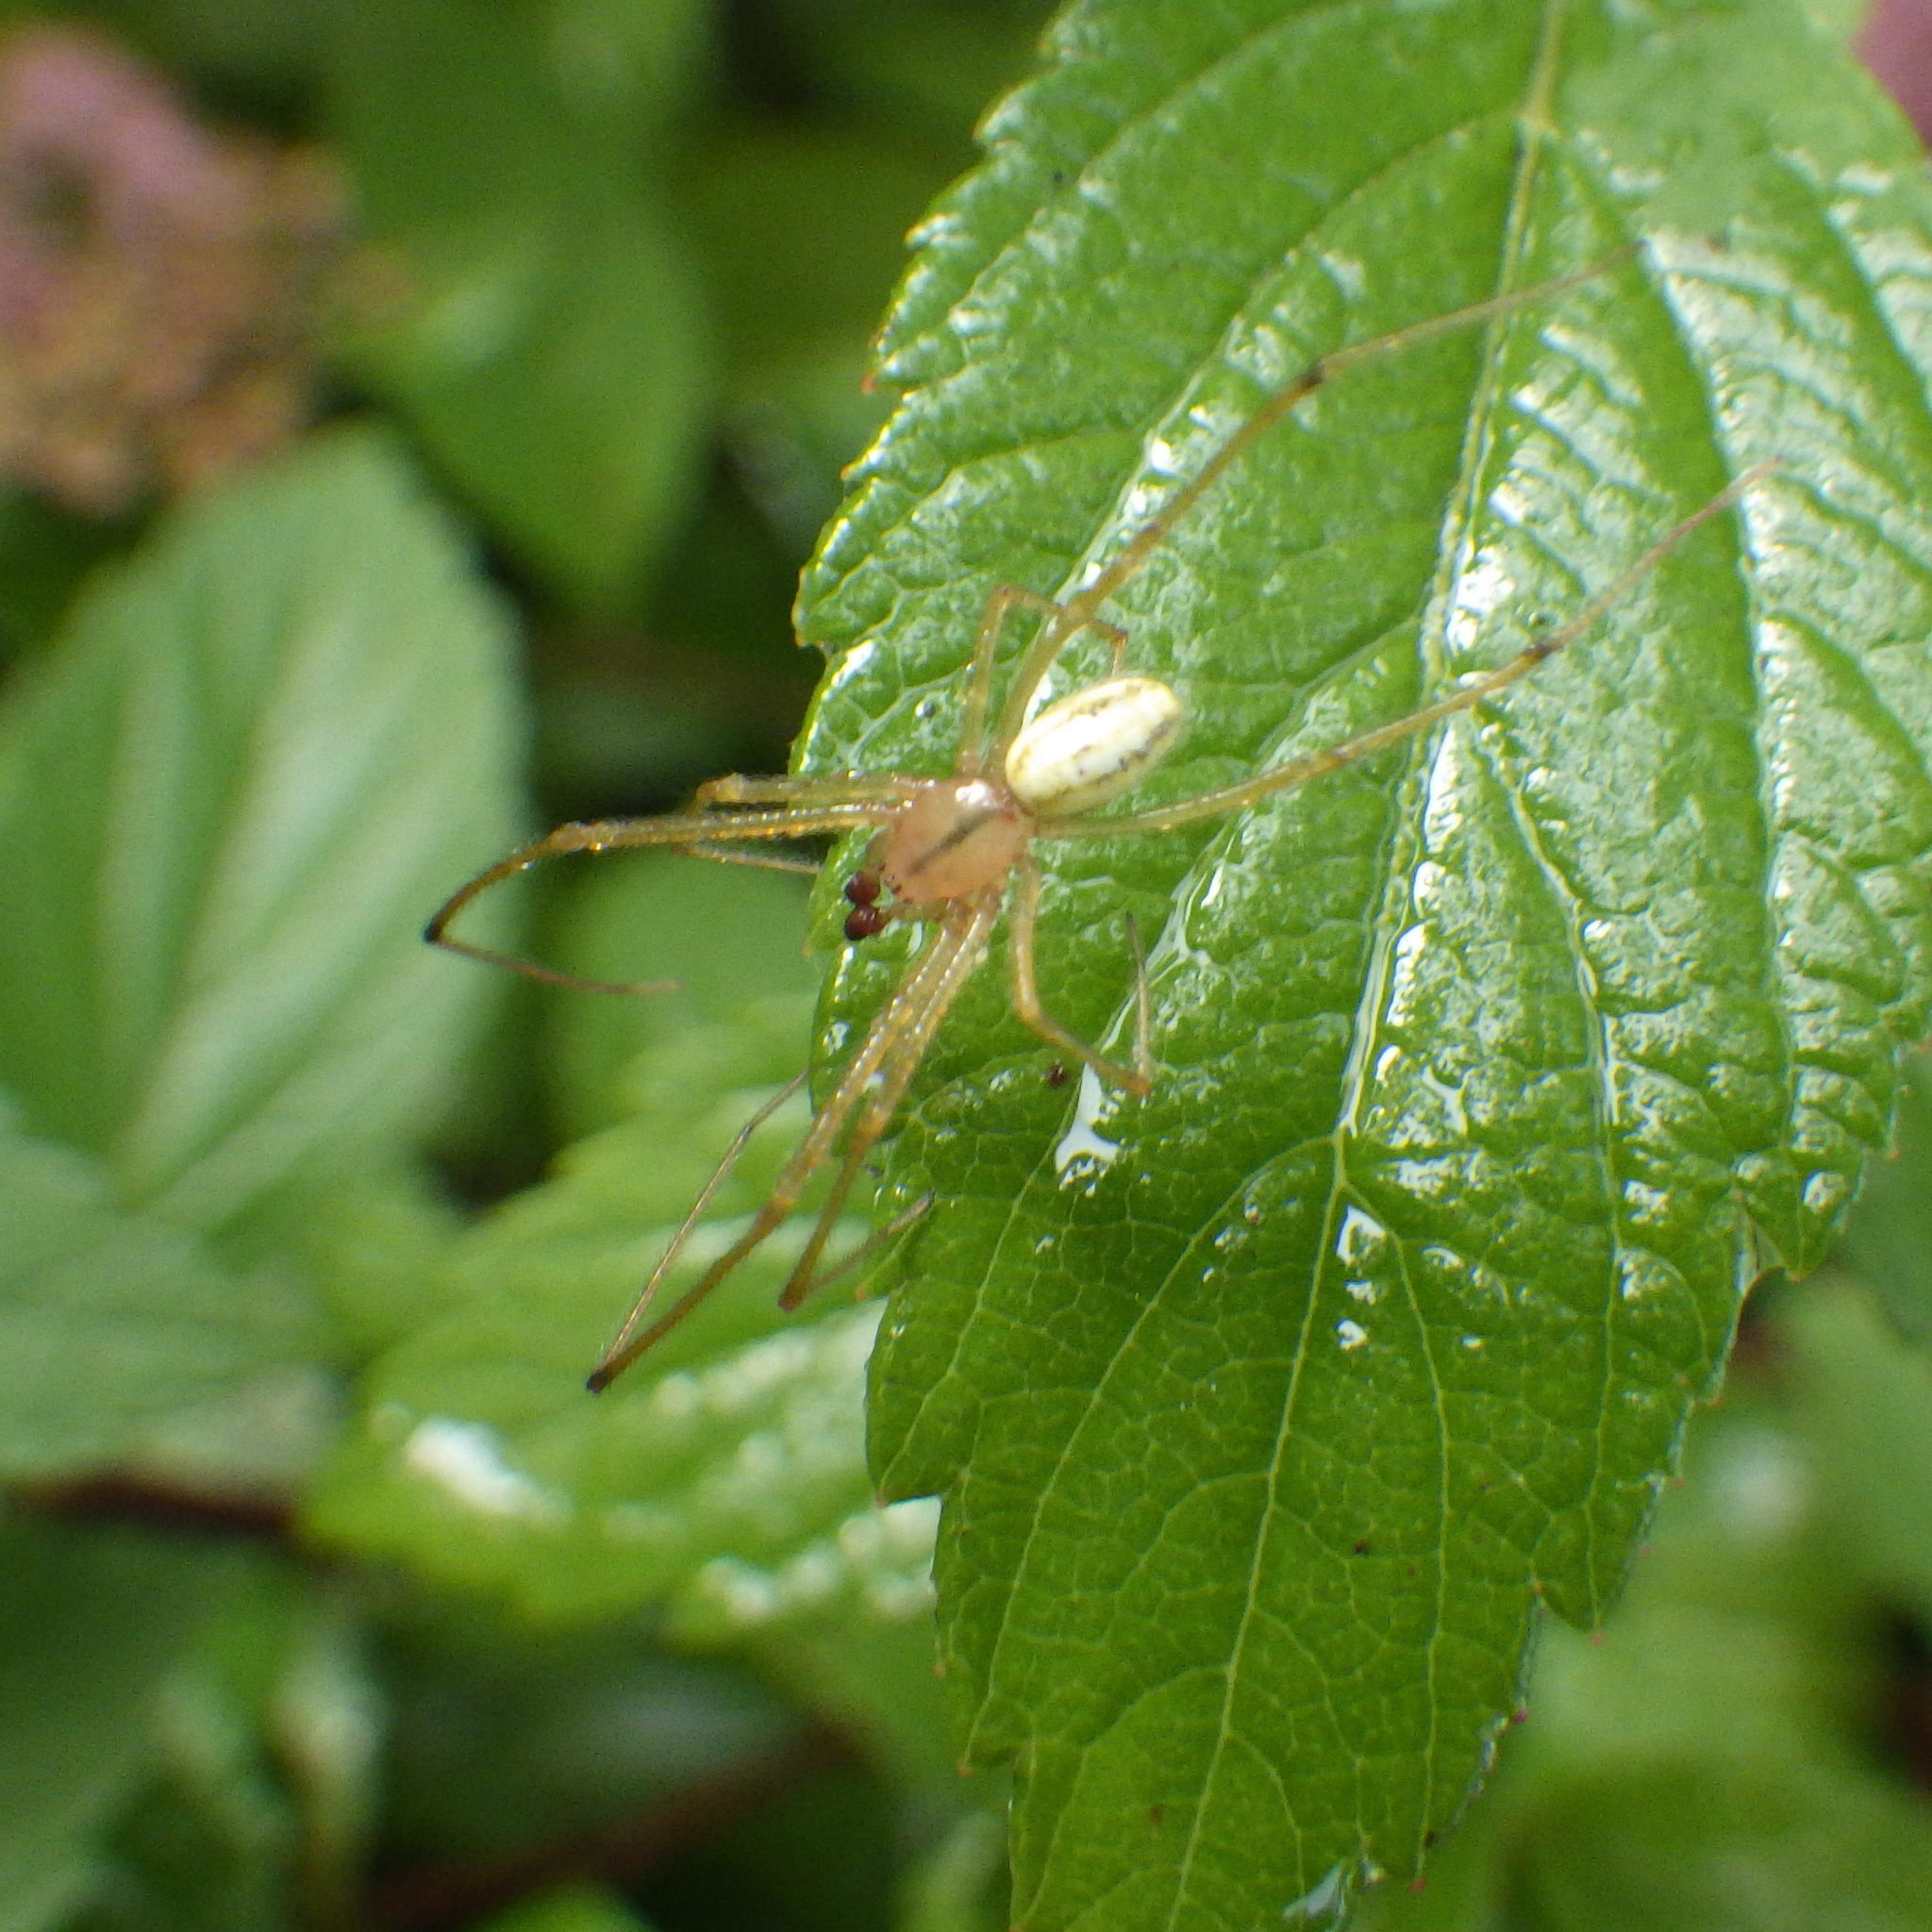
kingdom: Animalia
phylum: Arthropoda
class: Arachnida
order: Araneae
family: Theridiidae
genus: Enoplognatha
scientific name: Enoplognatha ovata
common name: Common candy-striped spider
